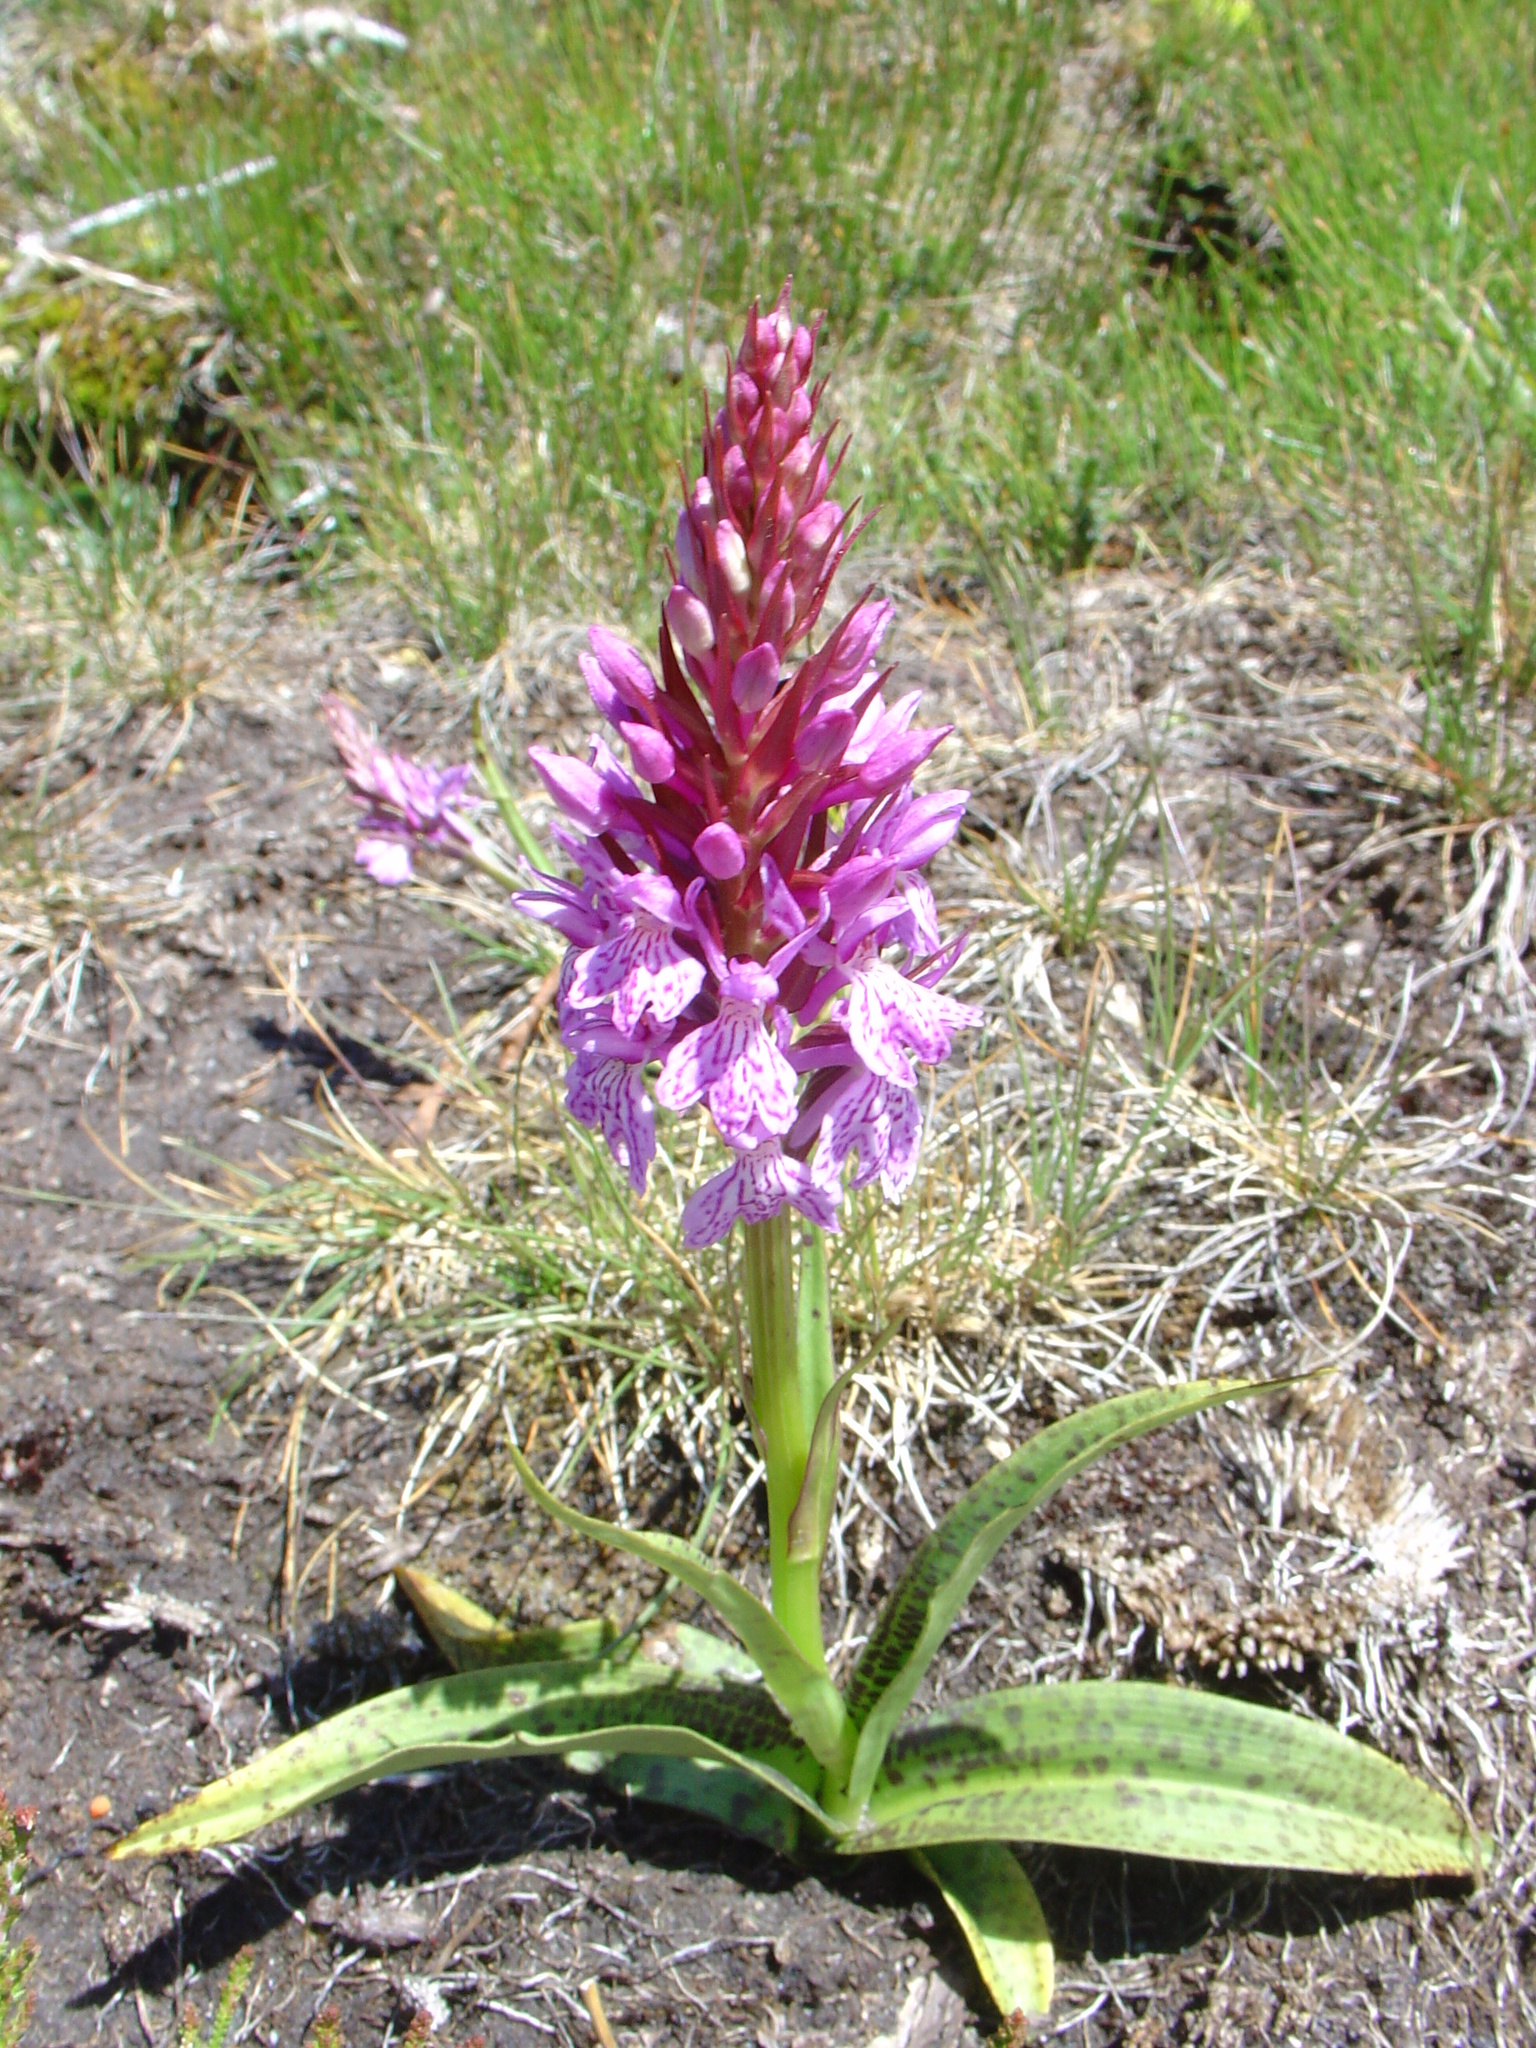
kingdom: Plantae
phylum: Tracheophyta
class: Liliopsida
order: Asparagales
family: Orchidaceae
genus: Dactylorhiza
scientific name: Dactylorhiza maculata
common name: Heath spotted-orchid
